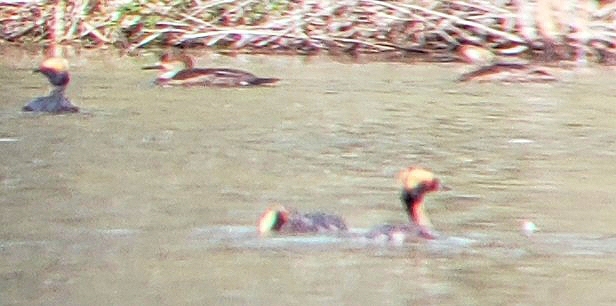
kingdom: Animalia
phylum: Chordata
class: Aves
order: Podicipediformes
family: Podicipedidae
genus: Podiceps
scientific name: Podiceps auritus
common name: Horned grebe
